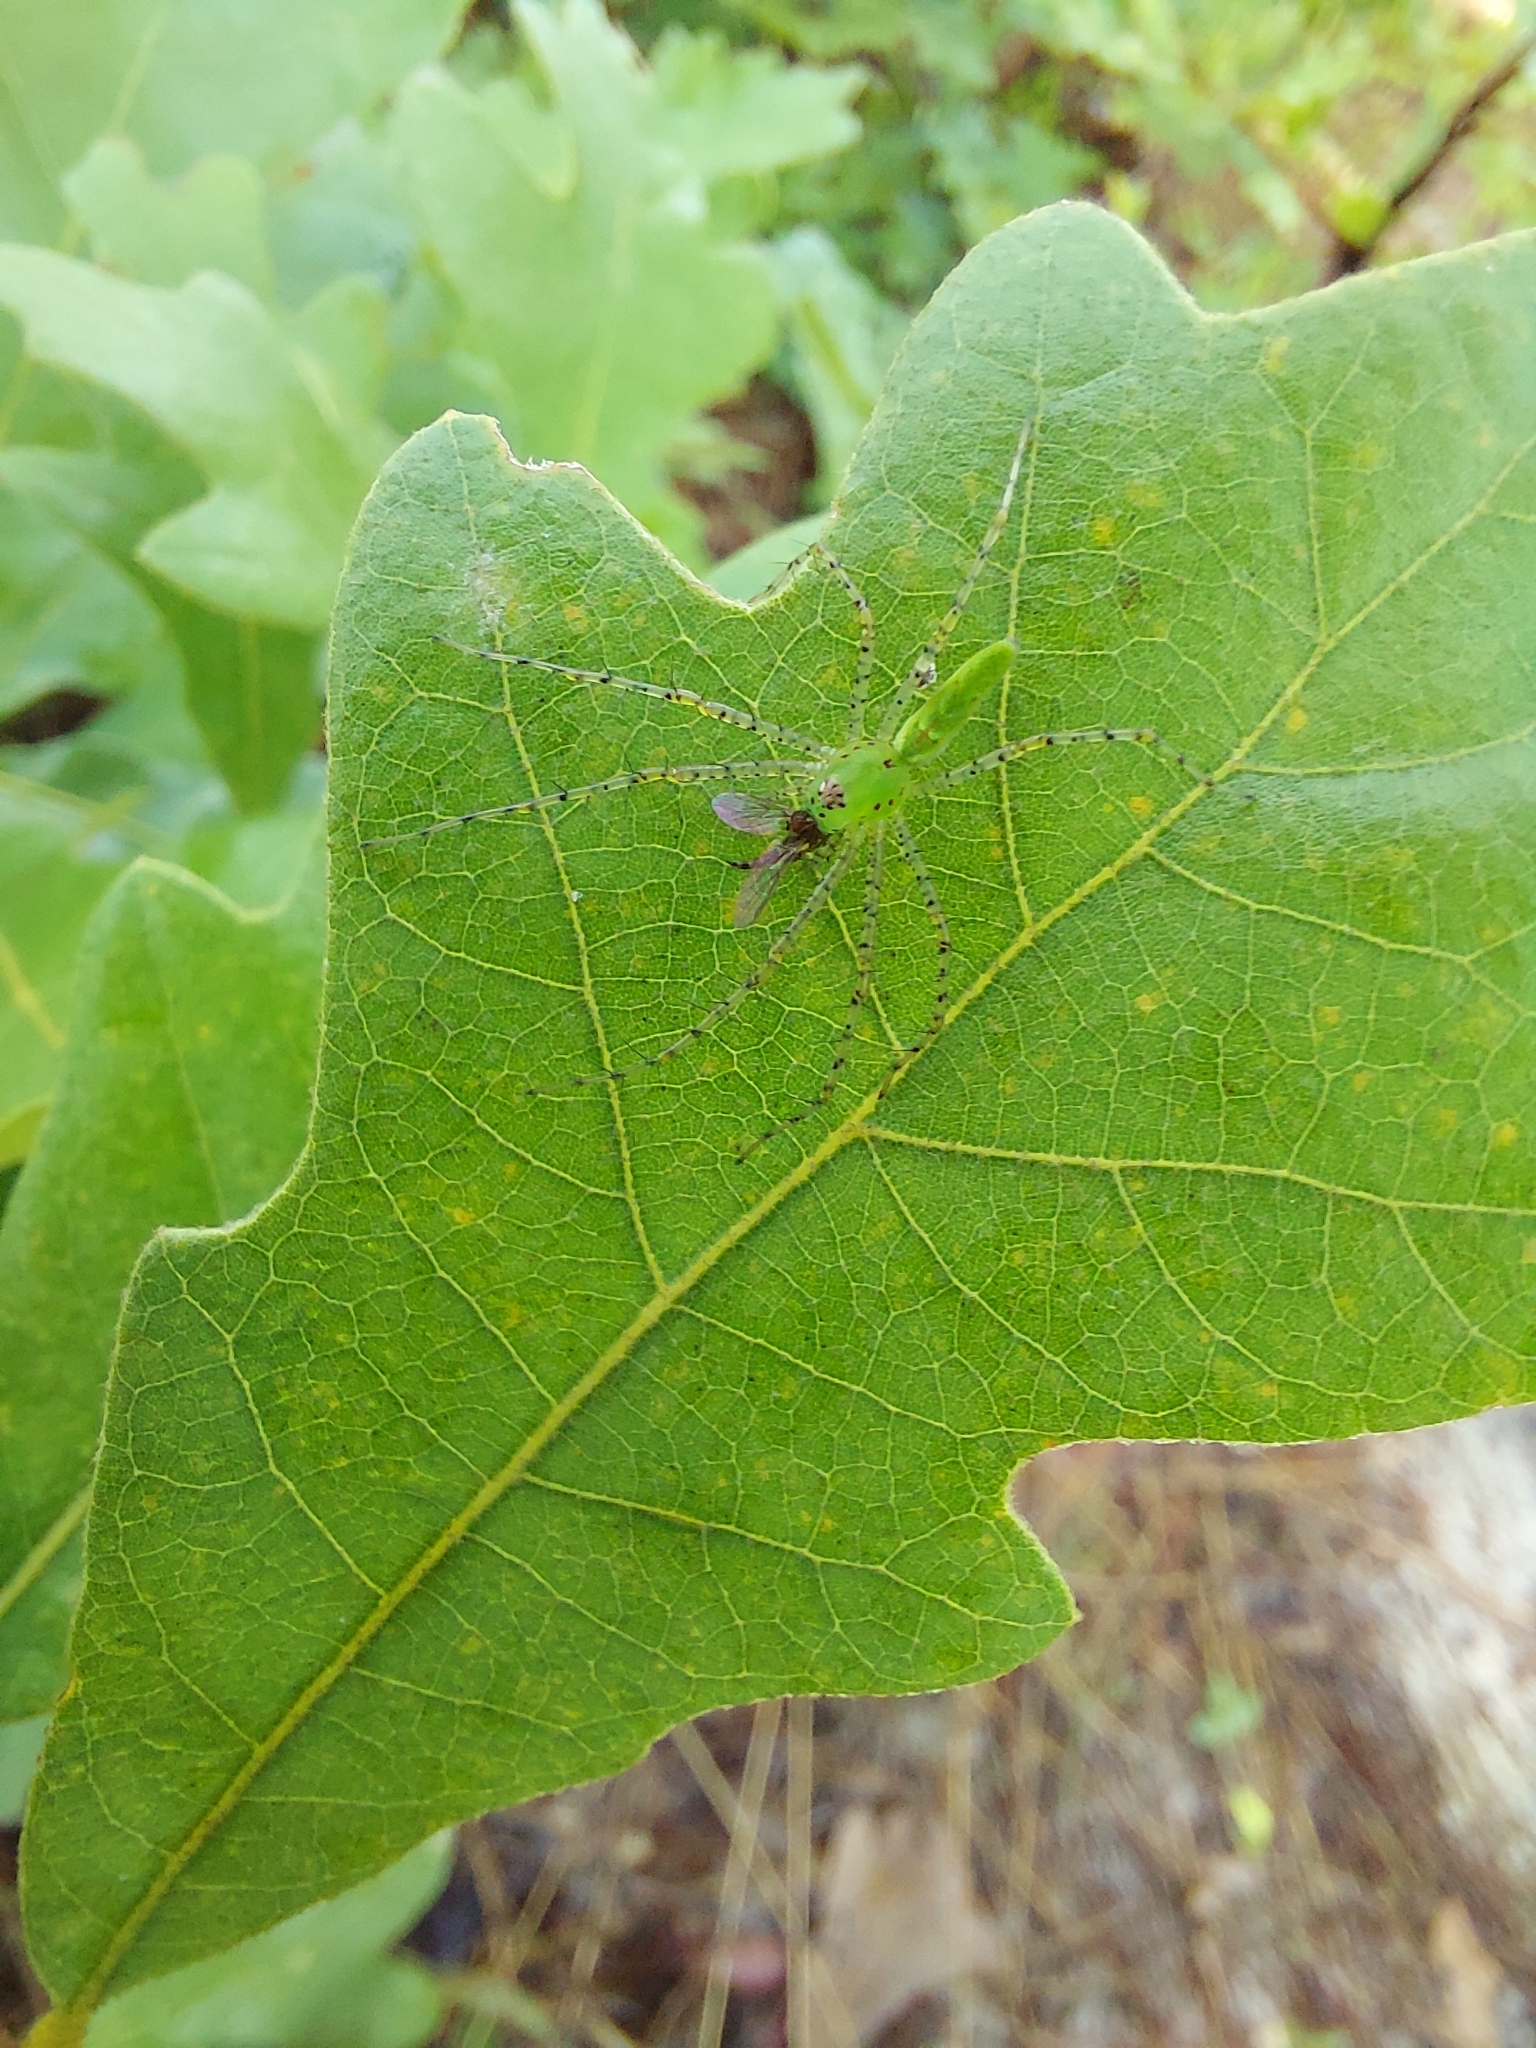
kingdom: Animalia
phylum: Arthropoda
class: Arachnida
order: Araneae
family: Oxyopidae
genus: Peucetia
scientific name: Peucetia viridans
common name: Lynx spiders
